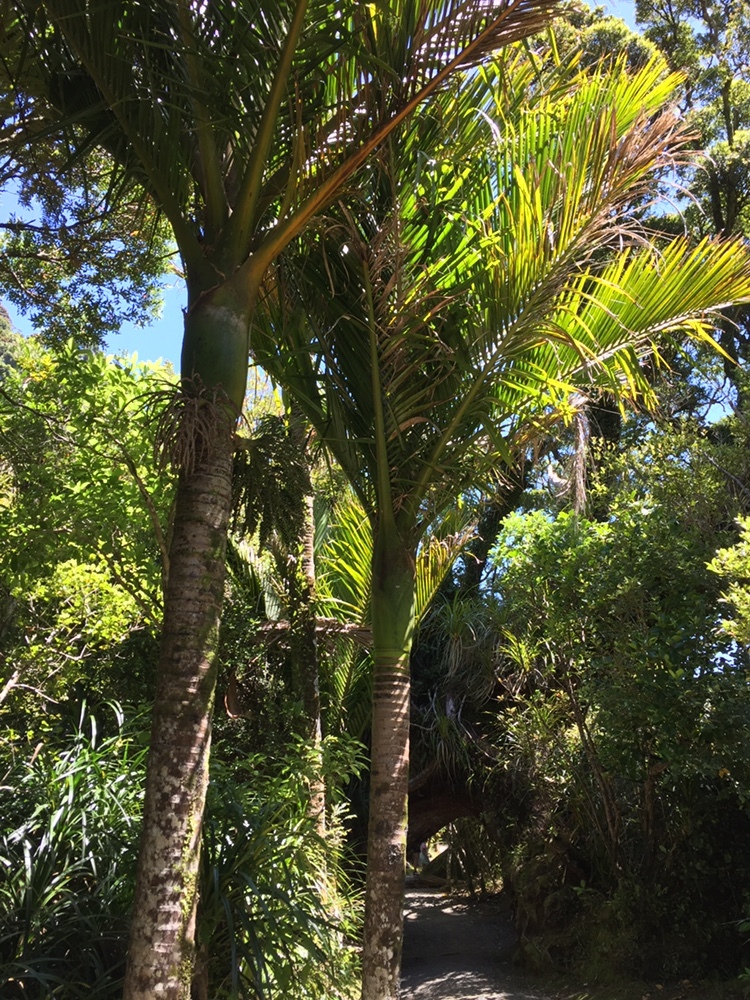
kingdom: Plantae
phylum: Tracheophyta
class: Liliopsida
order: Arecales
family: Arecaceae
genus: Rhopalostylis
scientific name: Rhopalostylis sapida
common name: Feather-duster palm
